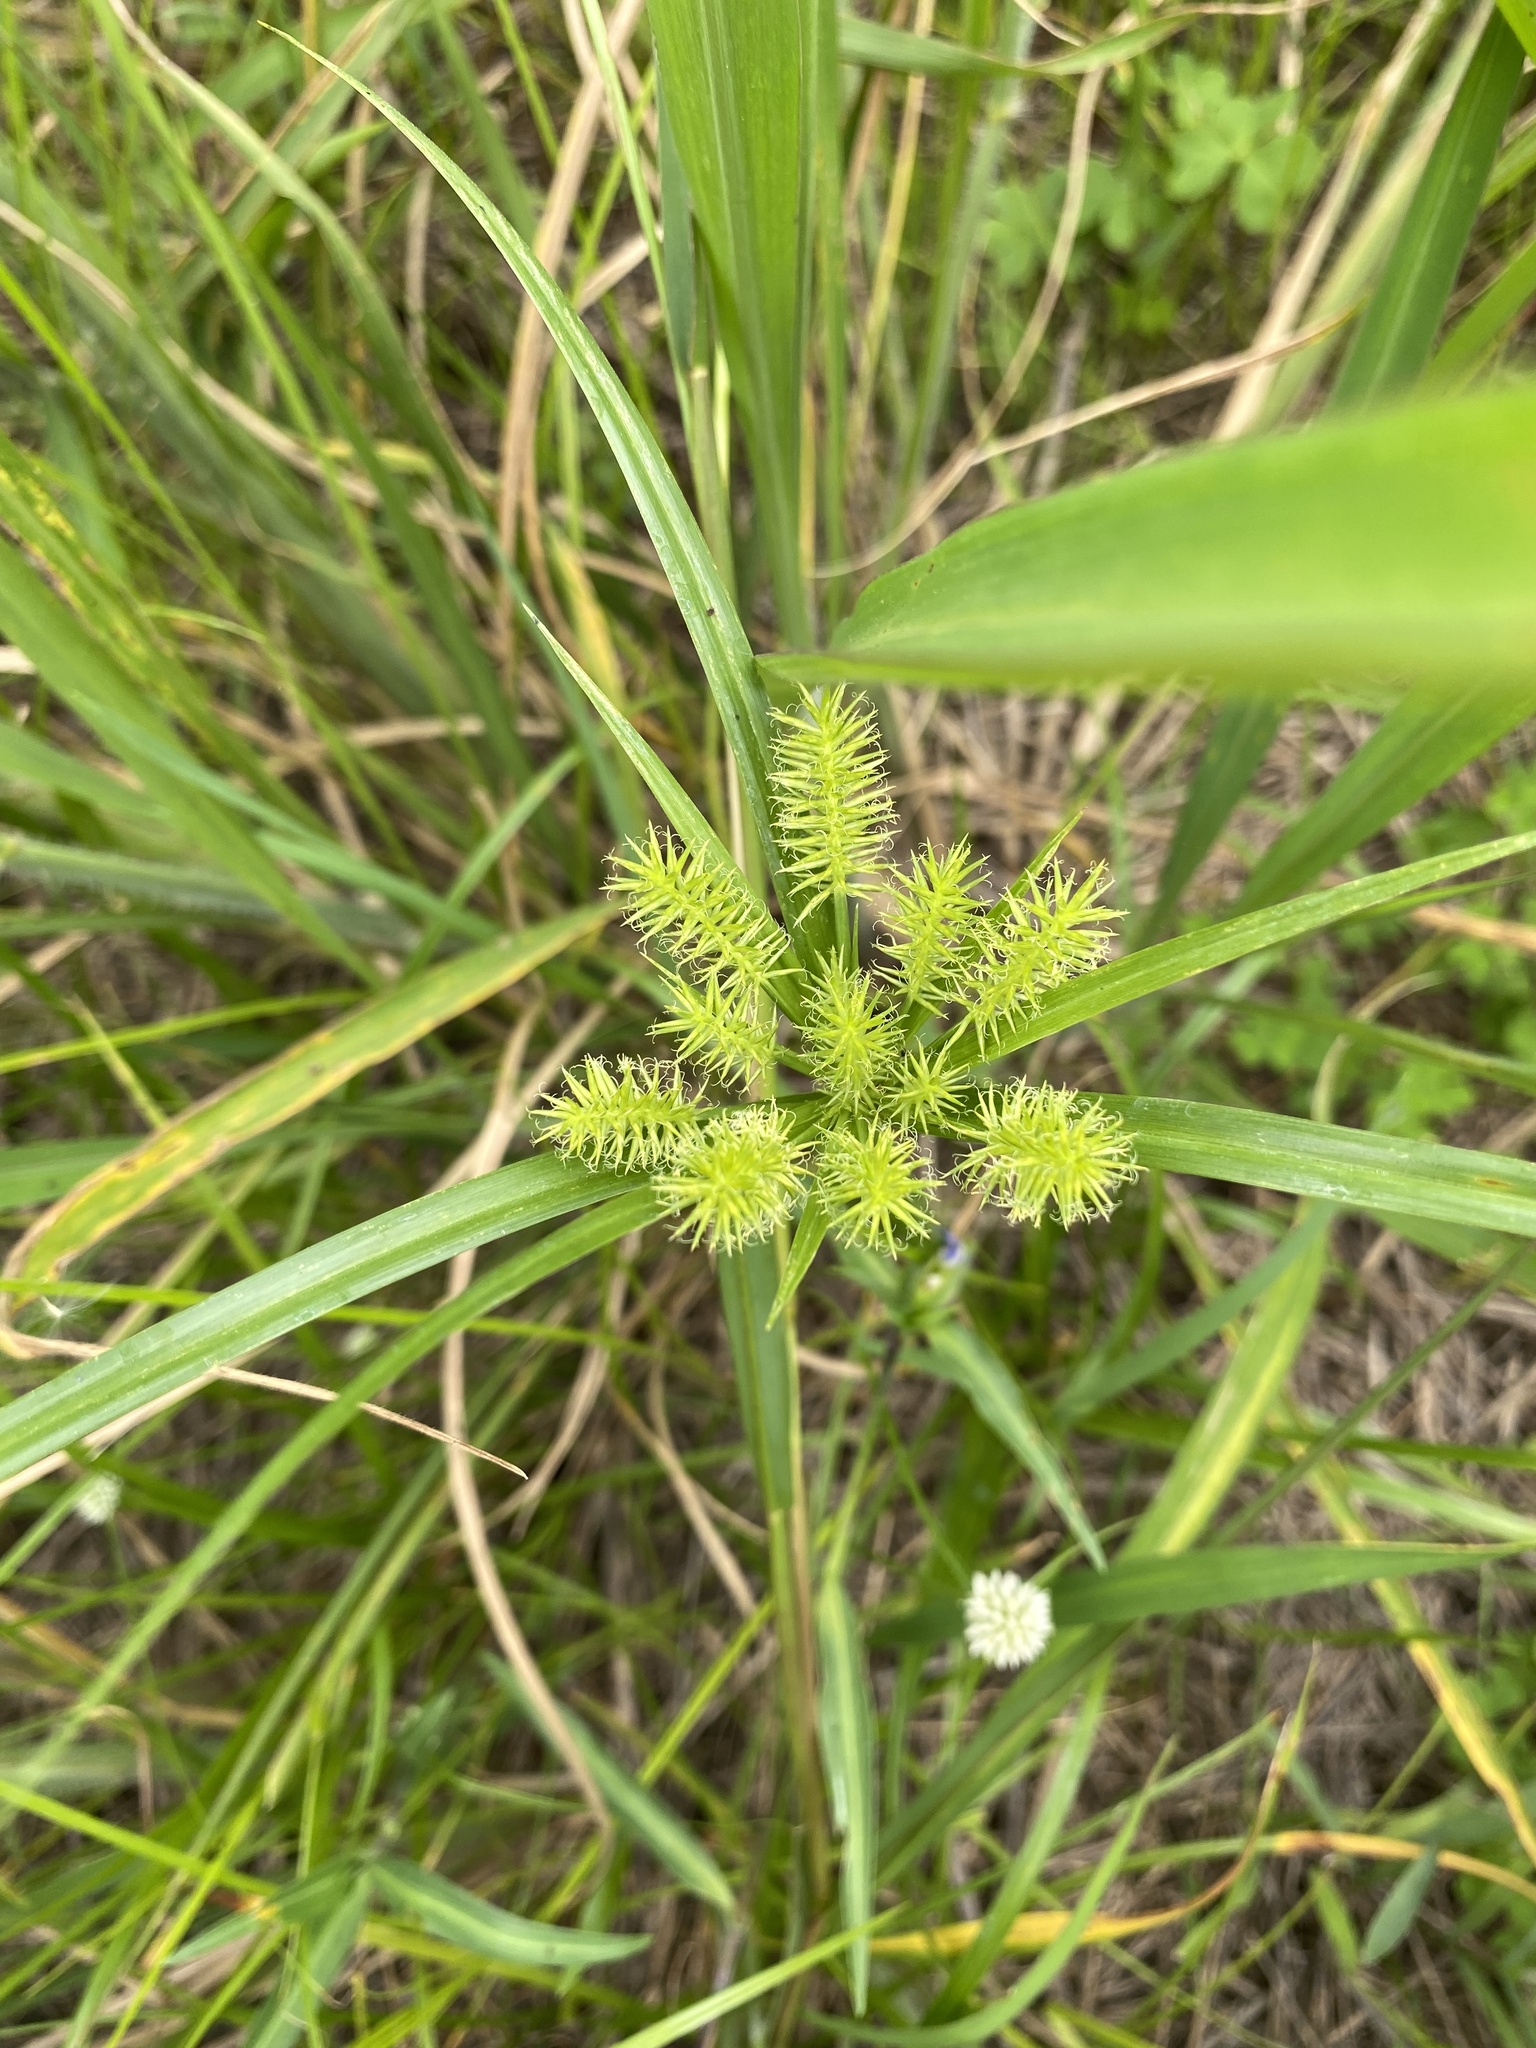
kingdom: Plantae
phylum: Tracheophyta
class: Liliopsida
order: Poales
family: Cyperaceae
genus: Cyperus
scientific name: Cyperus cyperoides
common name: Pacific island flat sedge
